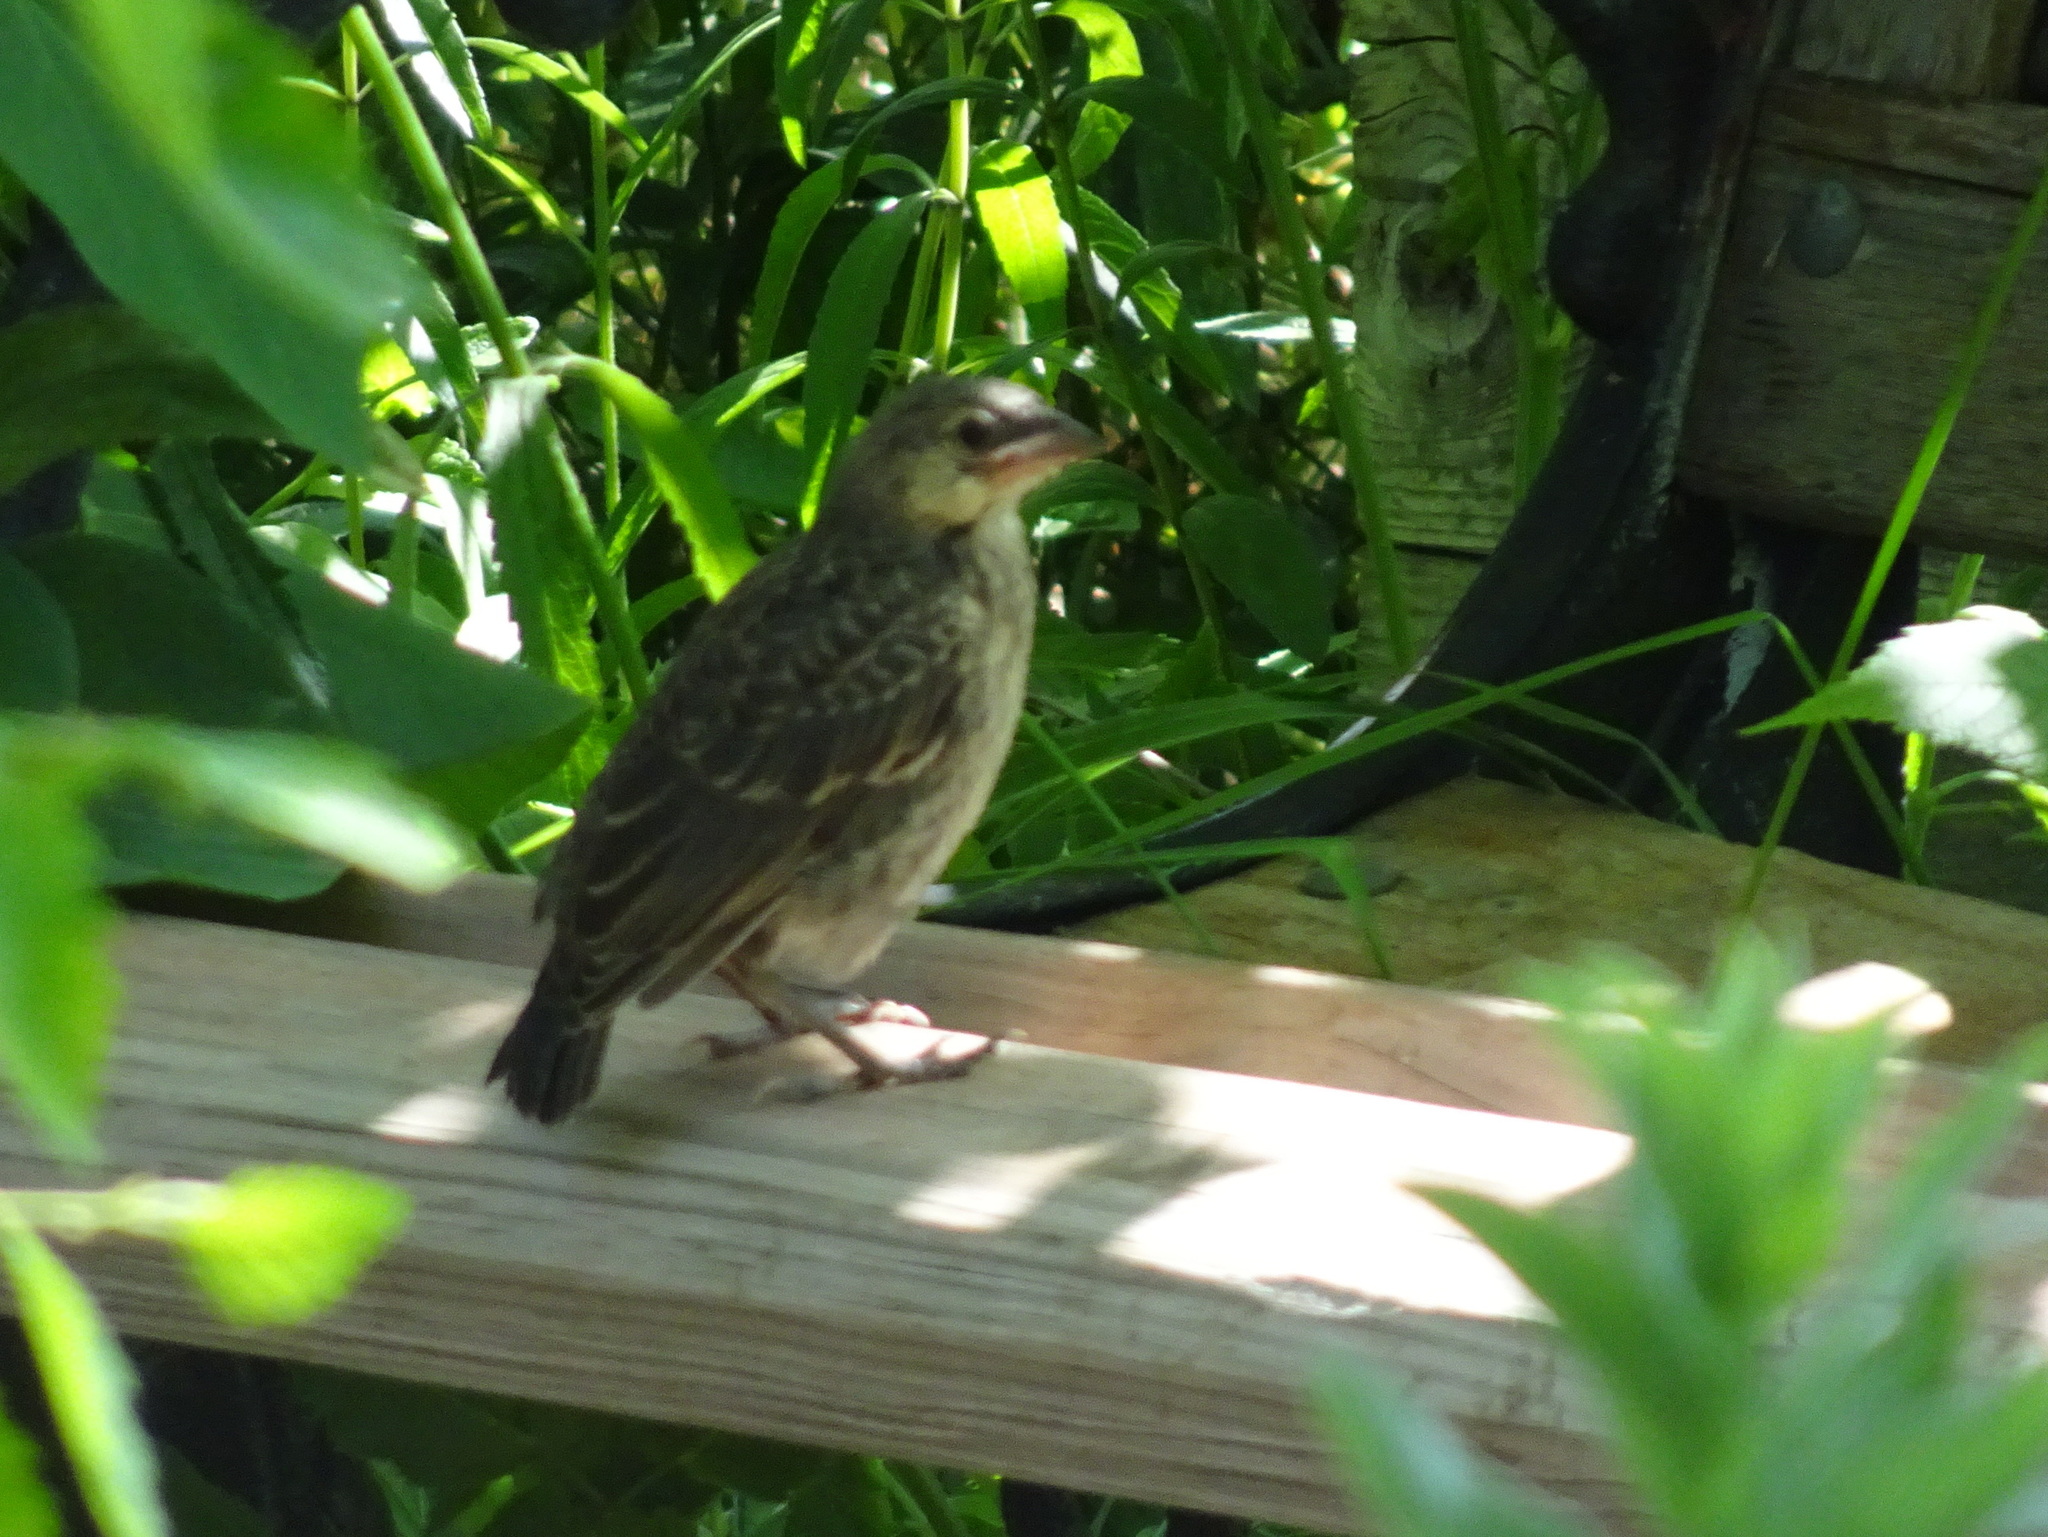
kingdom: Animalia
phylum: Chordata
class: Aves
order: Passeriformes
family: Icteridae
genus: Molothrus
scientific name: Molothrus ater
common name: Brown-headed cowbird
